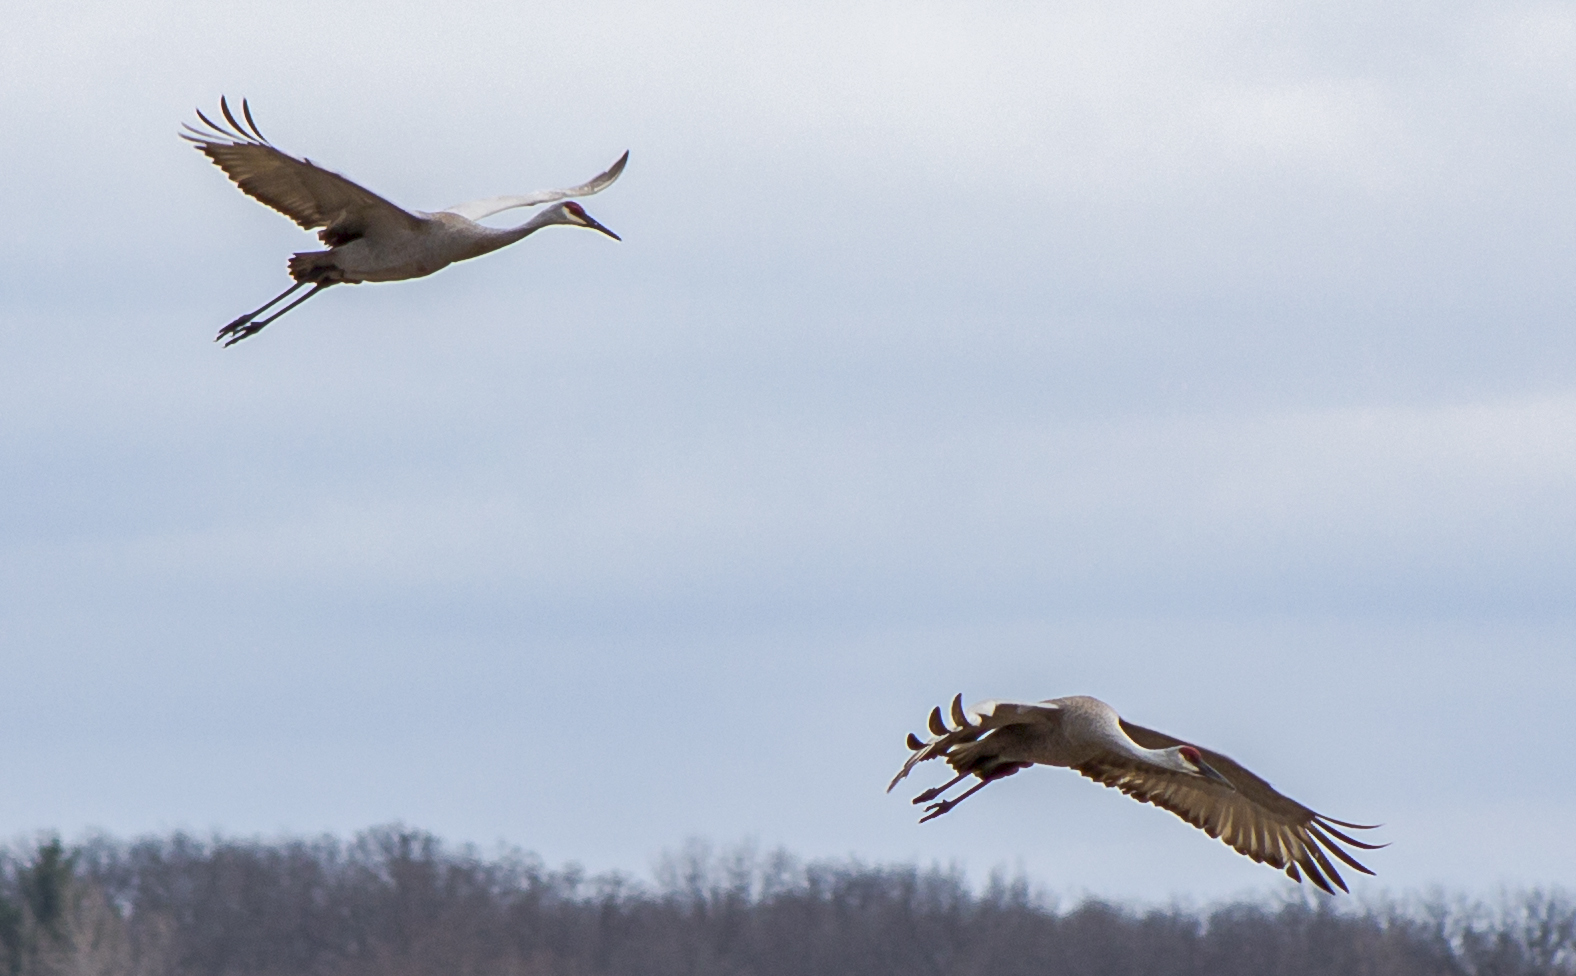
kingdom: Animalia
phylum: Chordata
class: Aves
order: Gruiformes
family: Gruidae
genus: Grus
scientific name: Grus canadensis
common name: Sandhill crane
